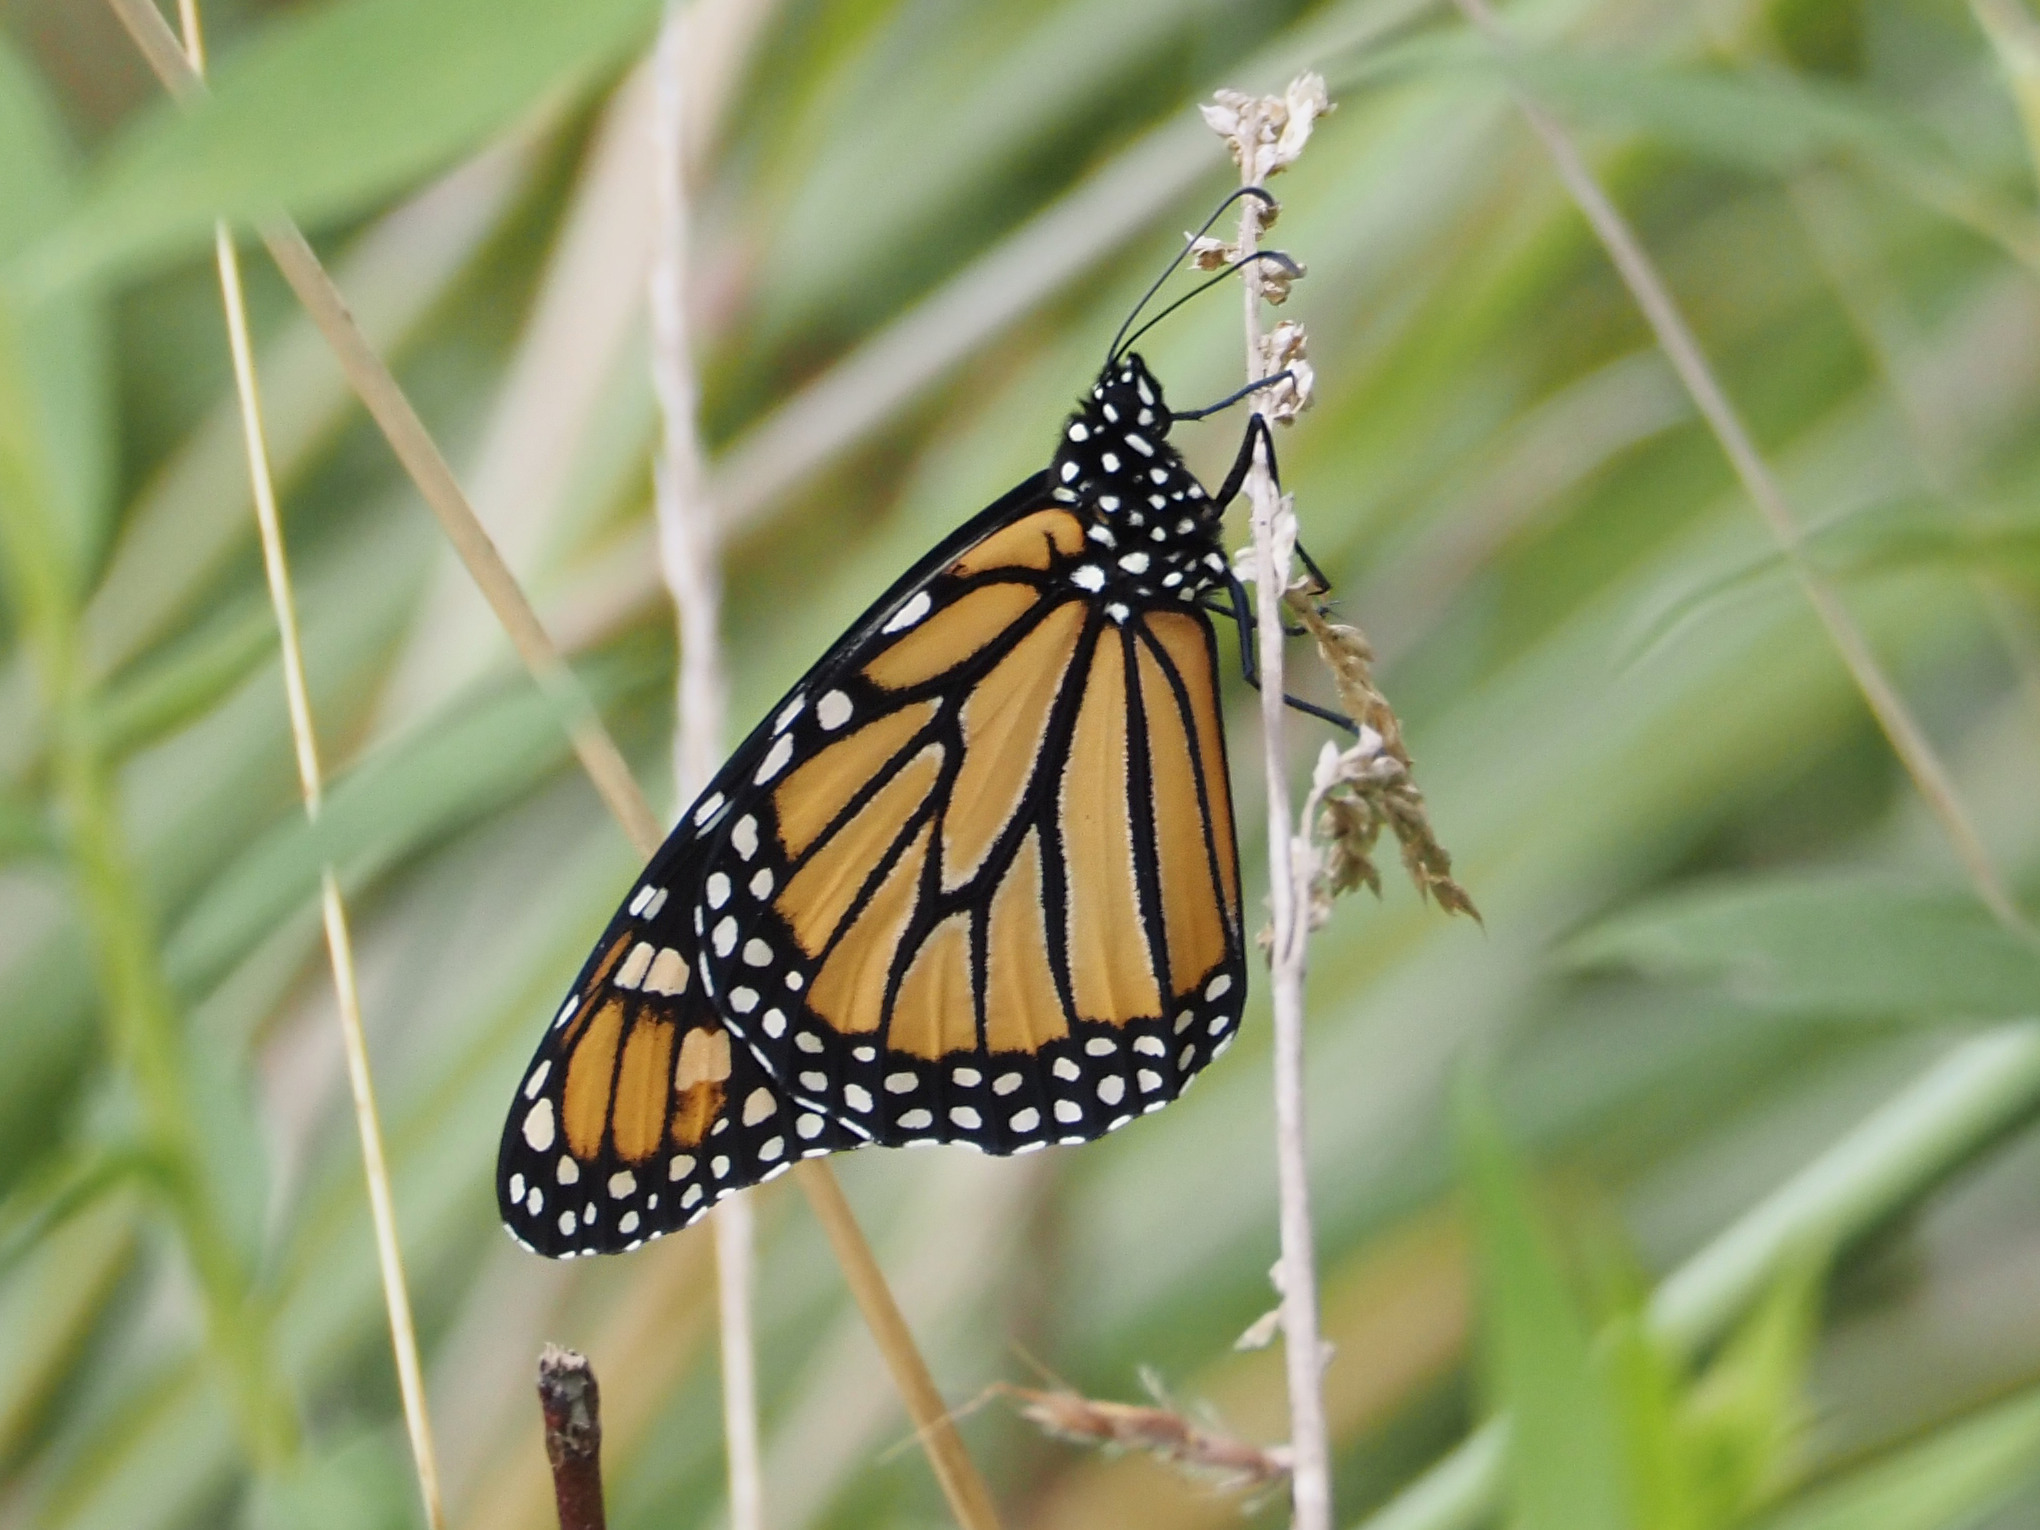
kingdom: Animalia
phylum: Arthropoda
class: Insecta
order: Lepidoptera
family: Nymphalidae
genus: Danaus
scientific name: Danaus plexippus
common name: Monarch
